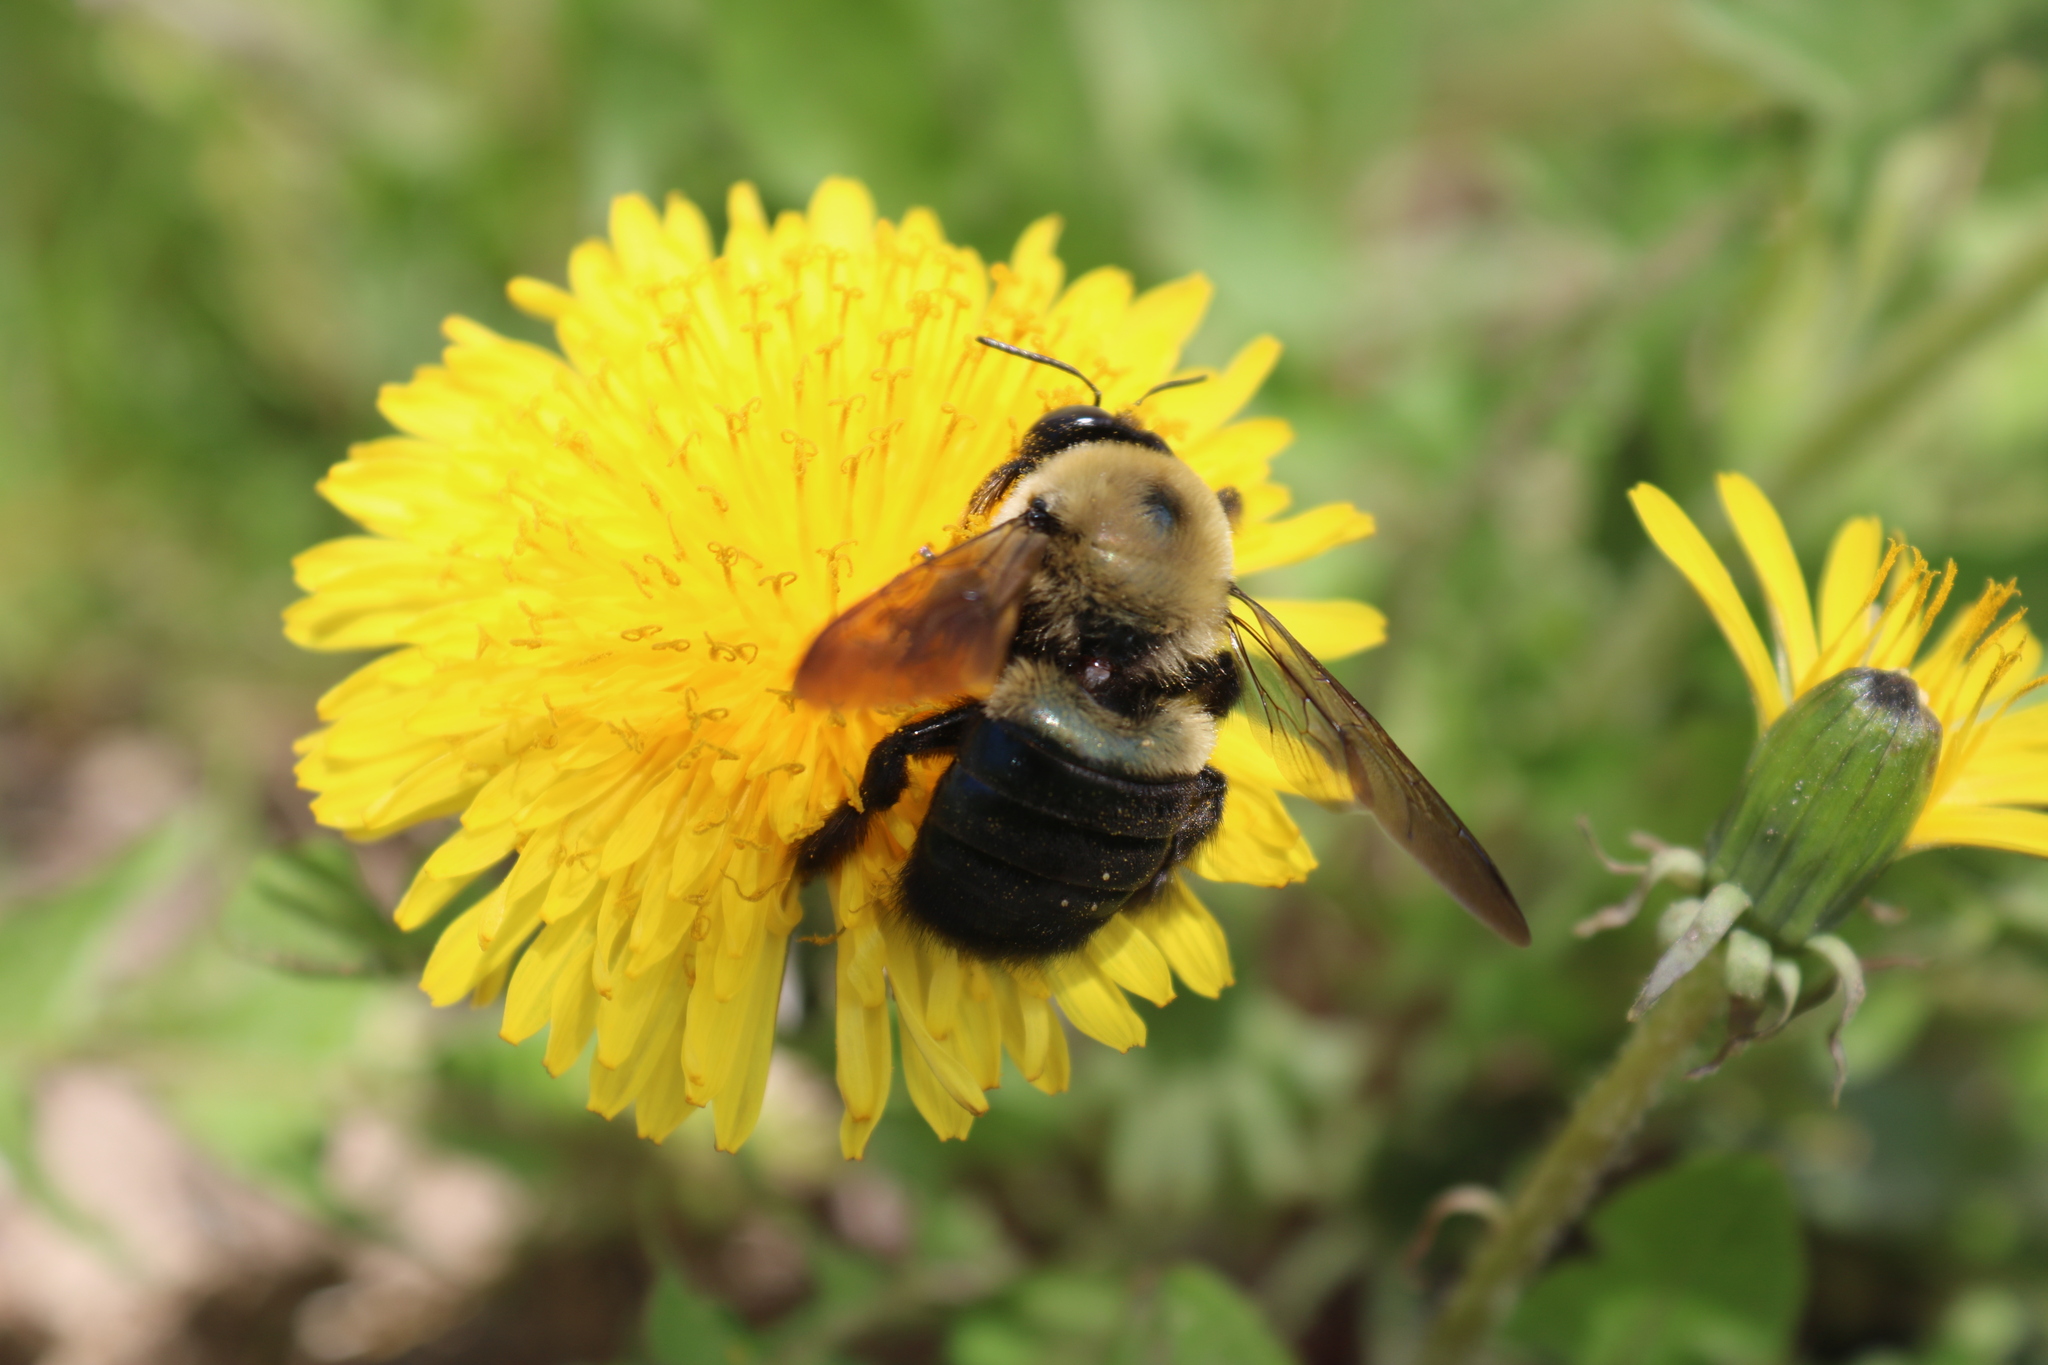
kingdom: Animalia
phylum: Arthropoda
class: Insecta
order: Hymenoptera
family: Apidae
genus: Xylocopa
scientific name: Xylocopa virginica
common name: Carpenter bee
